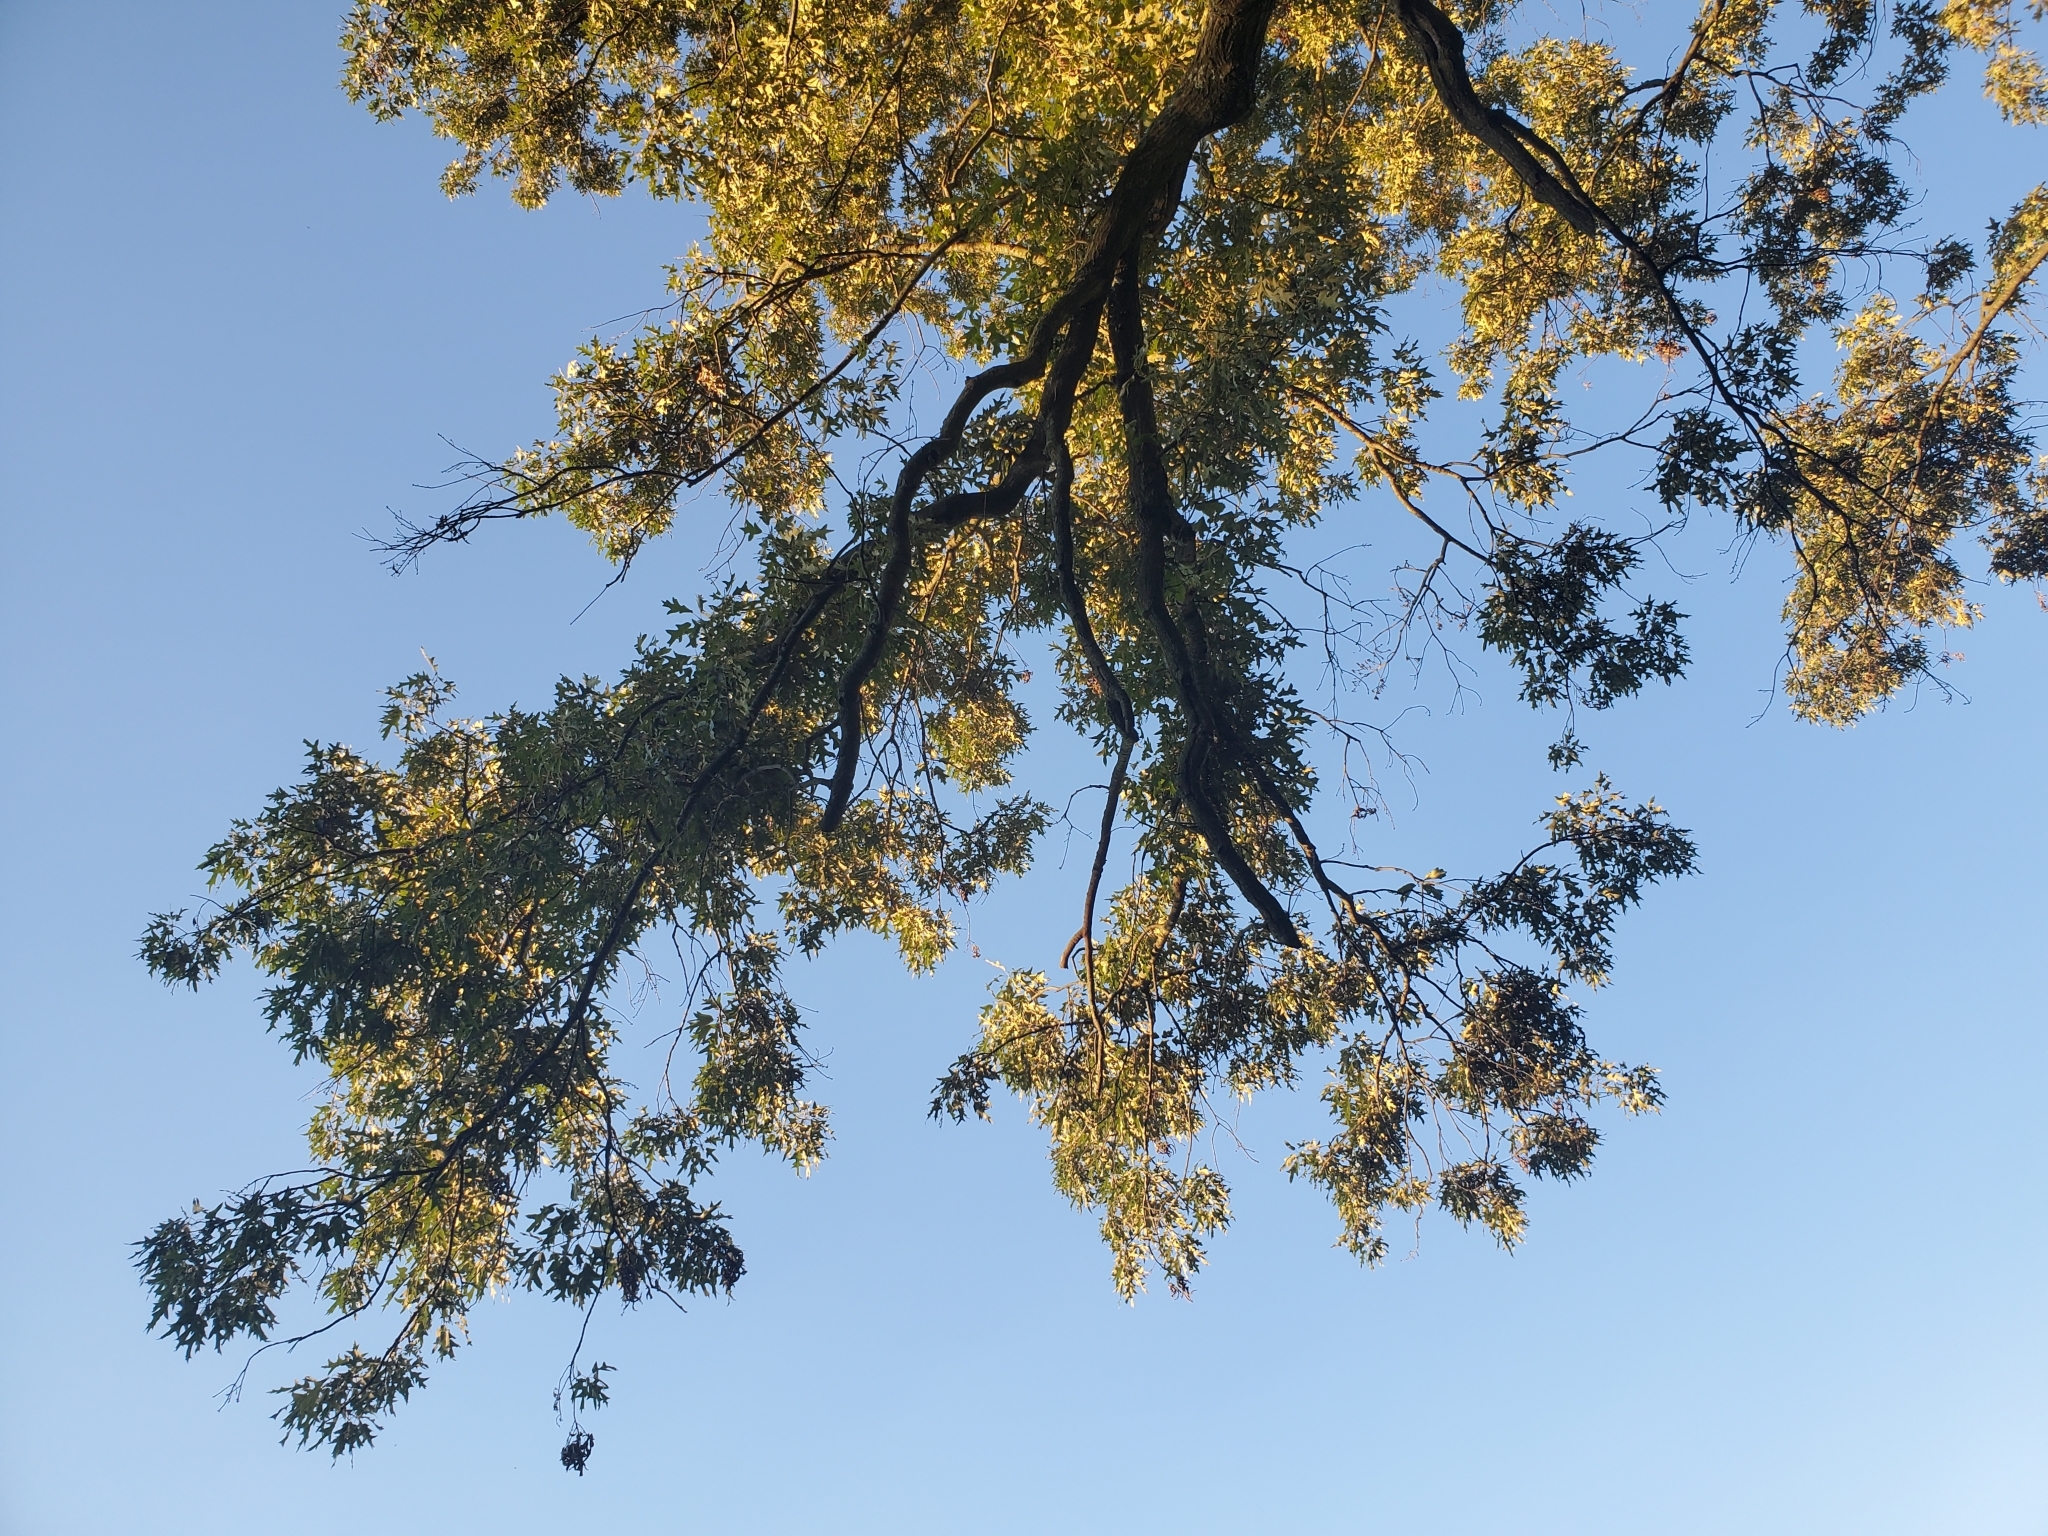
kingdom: Plantae
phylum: Tracheophyta
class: Magnoliopsida
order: Fagales
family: Fagaceae
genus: Quercus
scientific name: Quercus falcata
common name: Southern red oak
